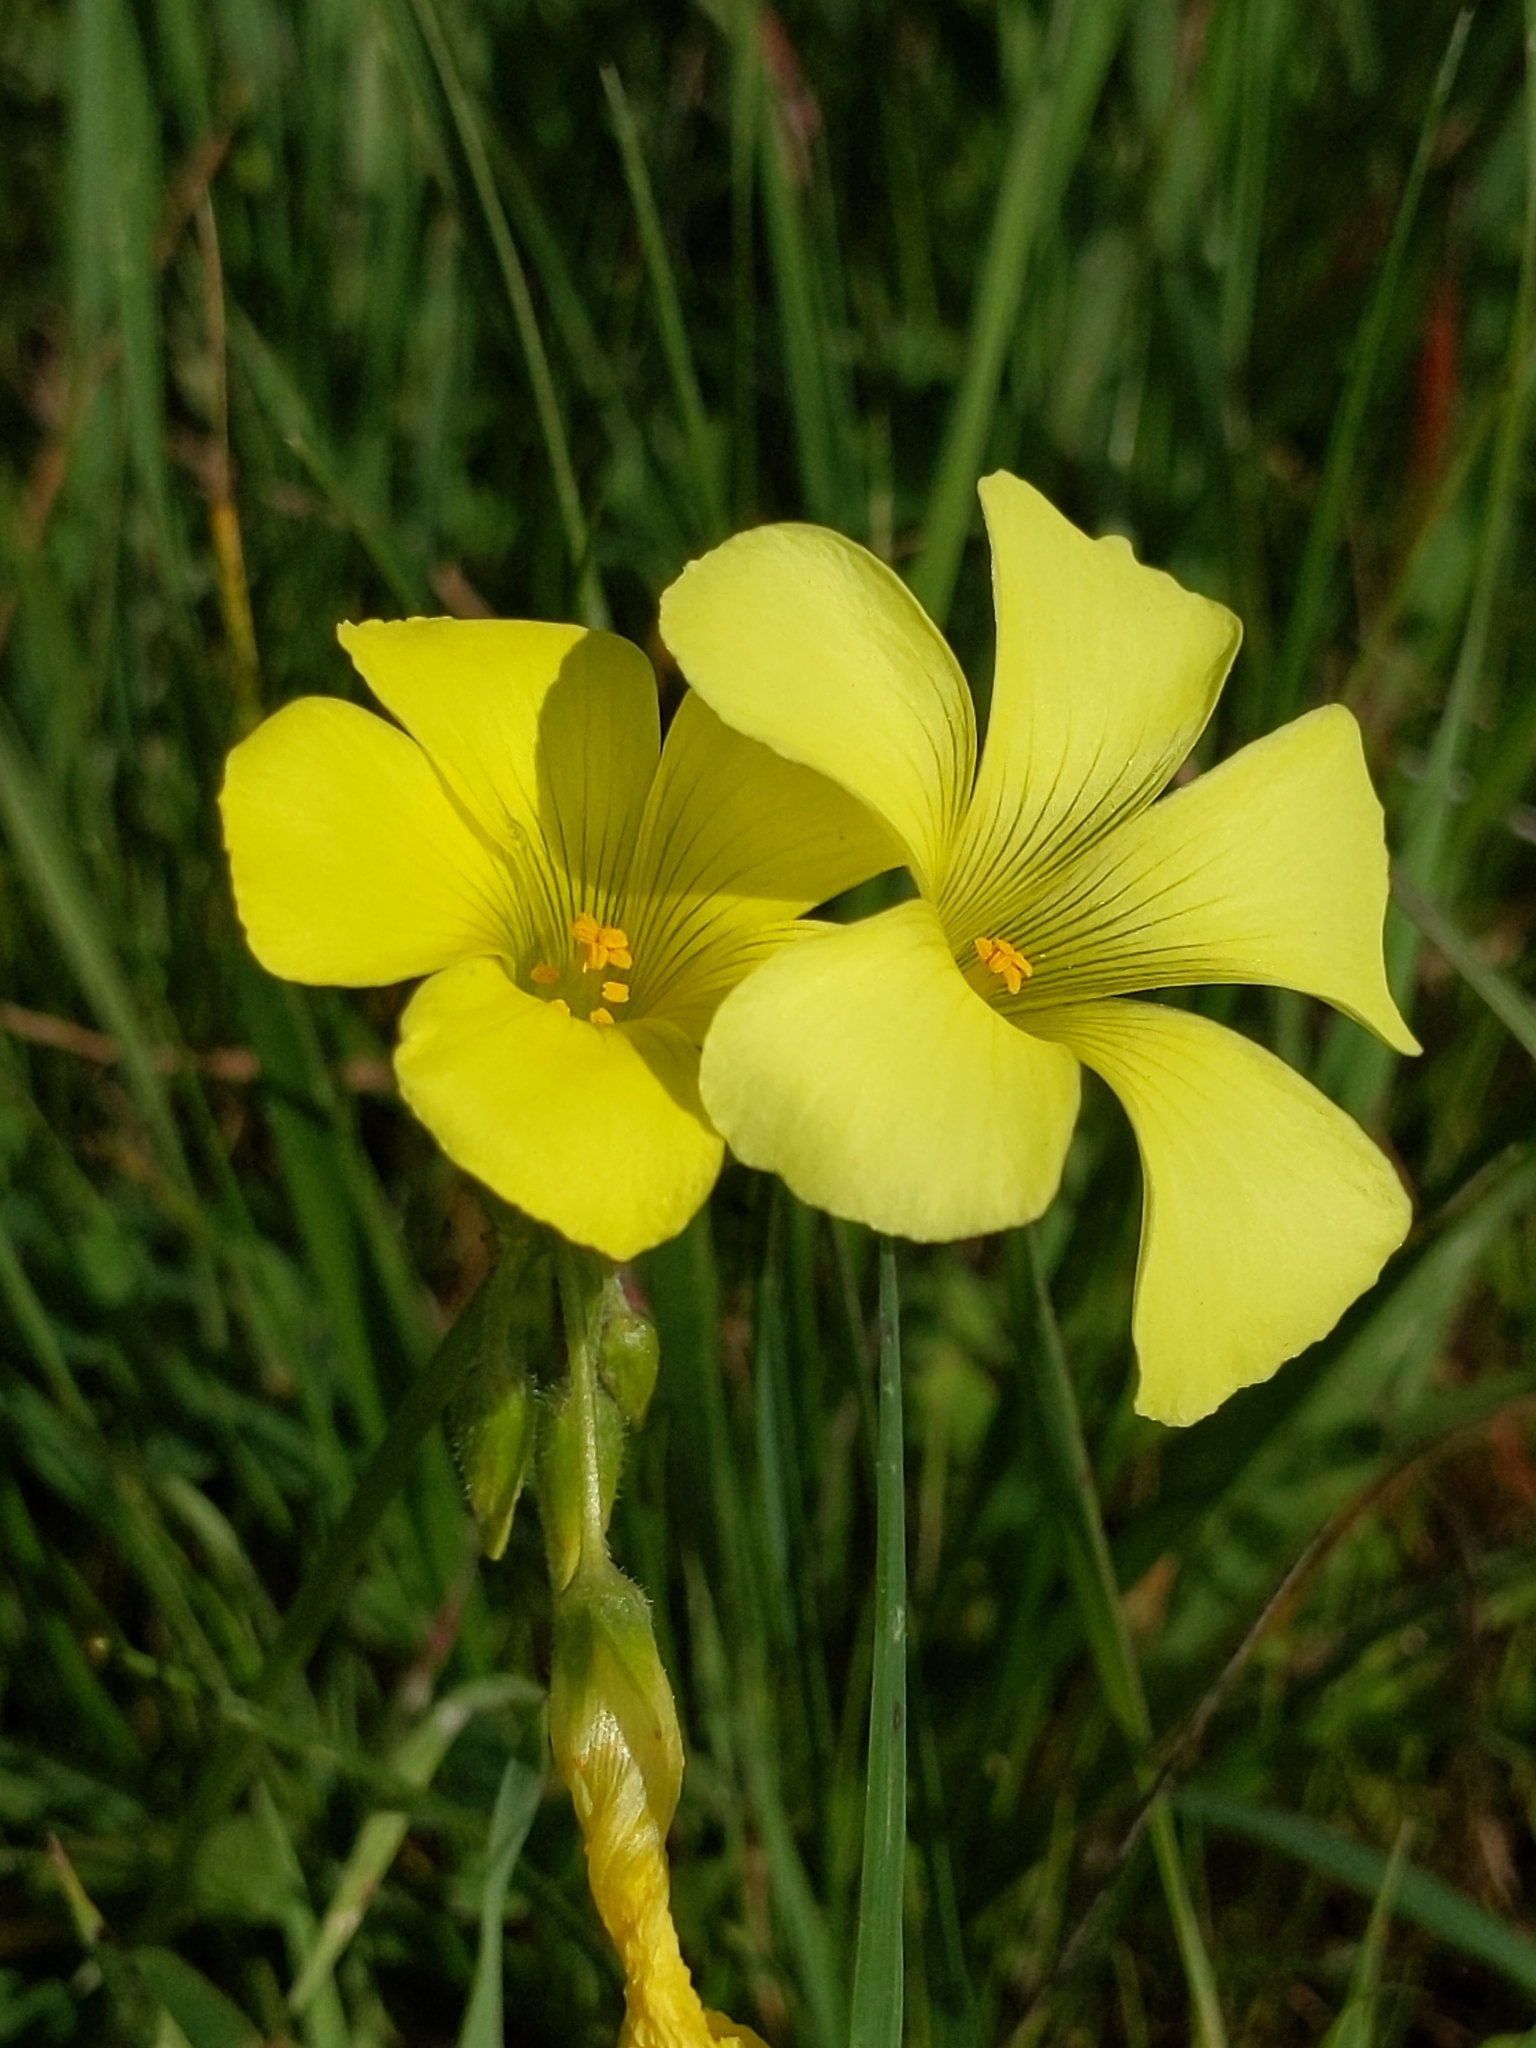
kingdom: Plantae
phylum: Tracheophyta
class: Magnoliopsida
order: Oxalidales
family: Oxalidaceae
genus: Oxalis
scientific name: Oxalis pes-caprae
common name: Bermuda-buttercup
